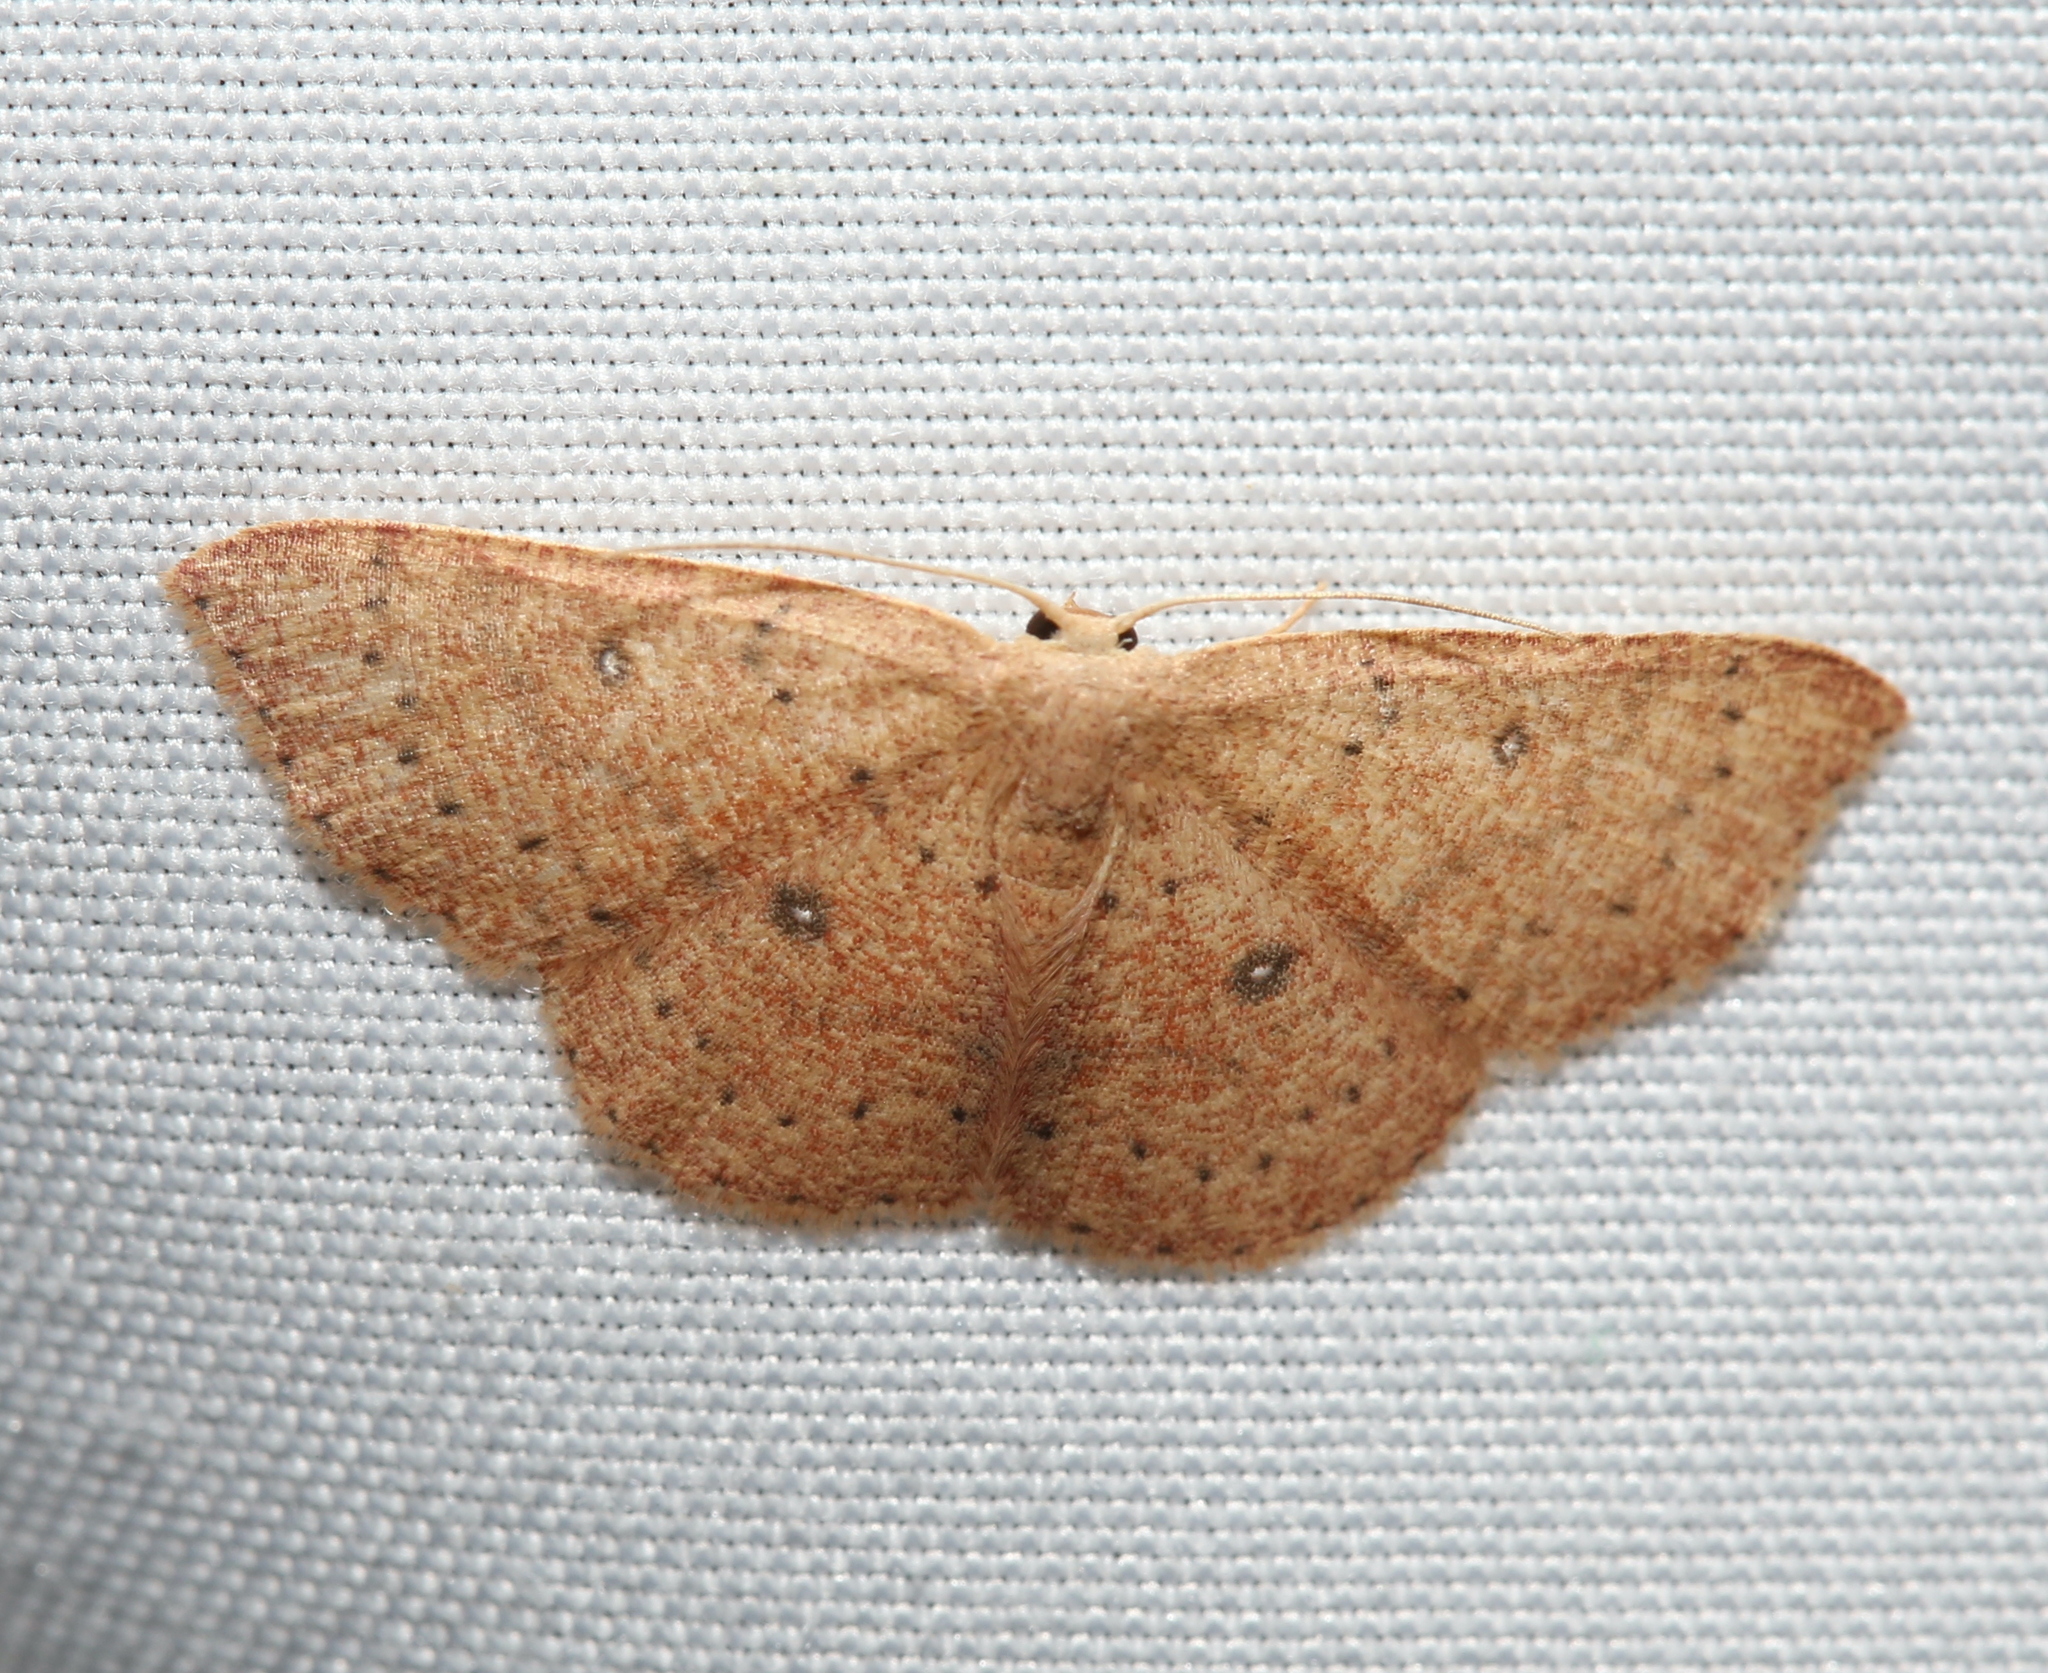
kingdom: Animalia
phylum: Arthropoda
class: Insecta
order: Lepidoptera
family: Geometridae
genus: Cyclophora
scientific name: Cyclophora packardi
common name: Packard's wave
